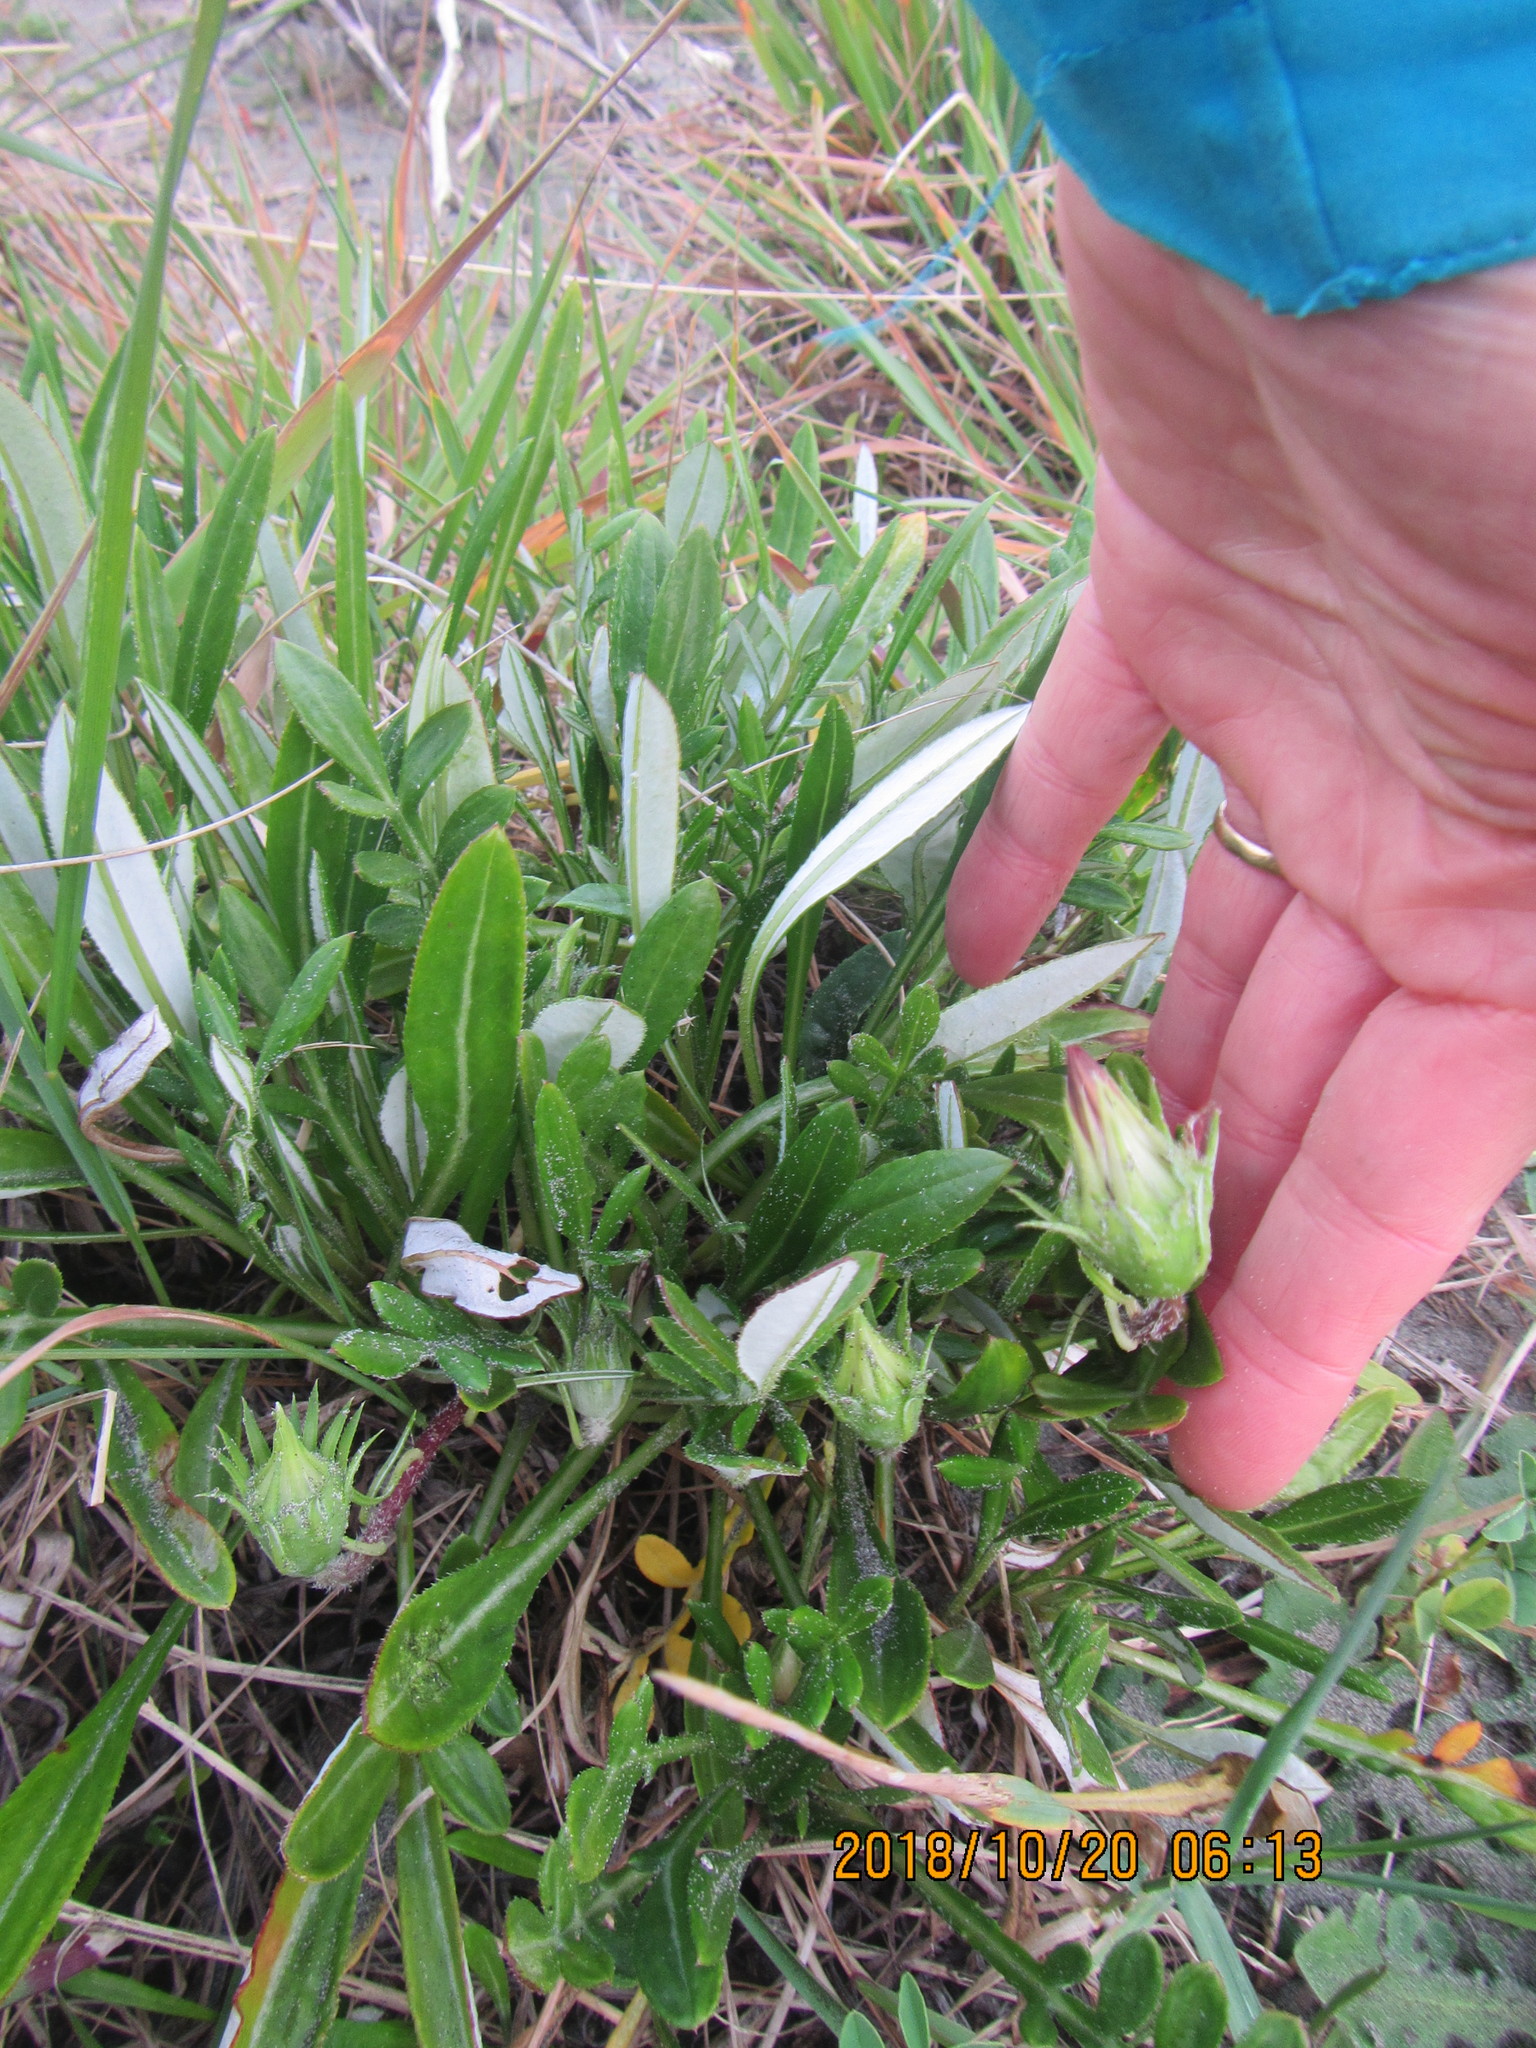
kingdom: Plantae
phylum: Tracheophyta
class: Magnoliopsida
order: Asterales
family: Asteraceae
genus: Gazania
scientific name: Gazania
